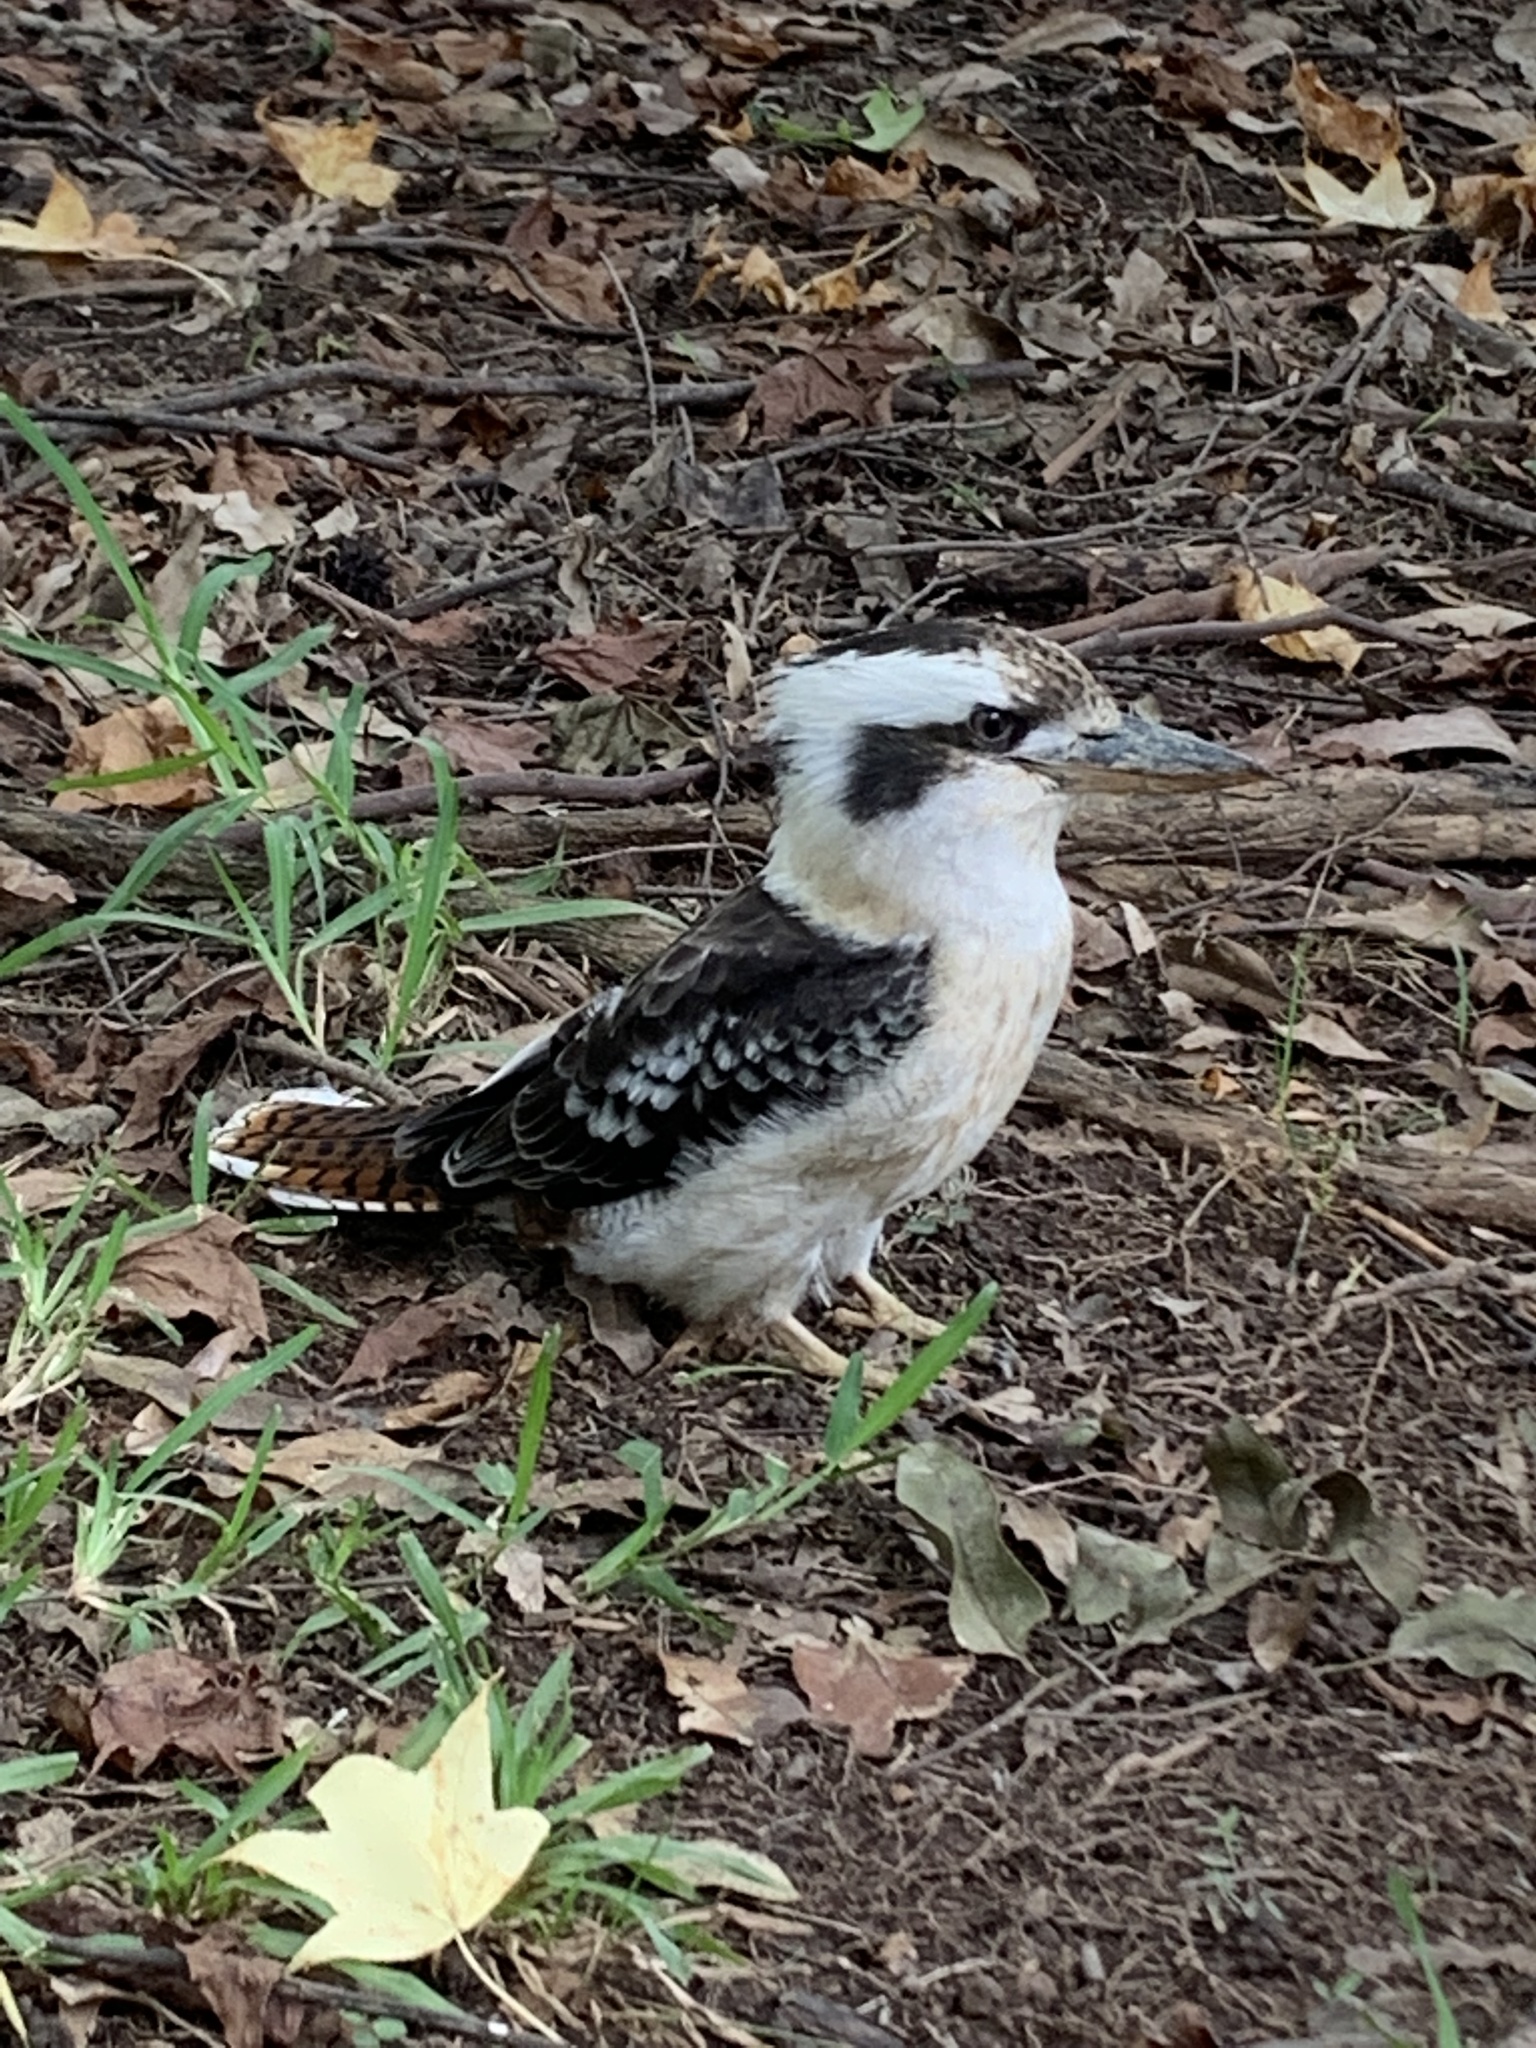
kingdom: Animalia
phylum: Chordata
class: Aves
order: Coraciiformes
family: Alcedinidae
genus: Dacelo
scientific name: Dacelo novaeguineae
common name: Laughing kookaburra
